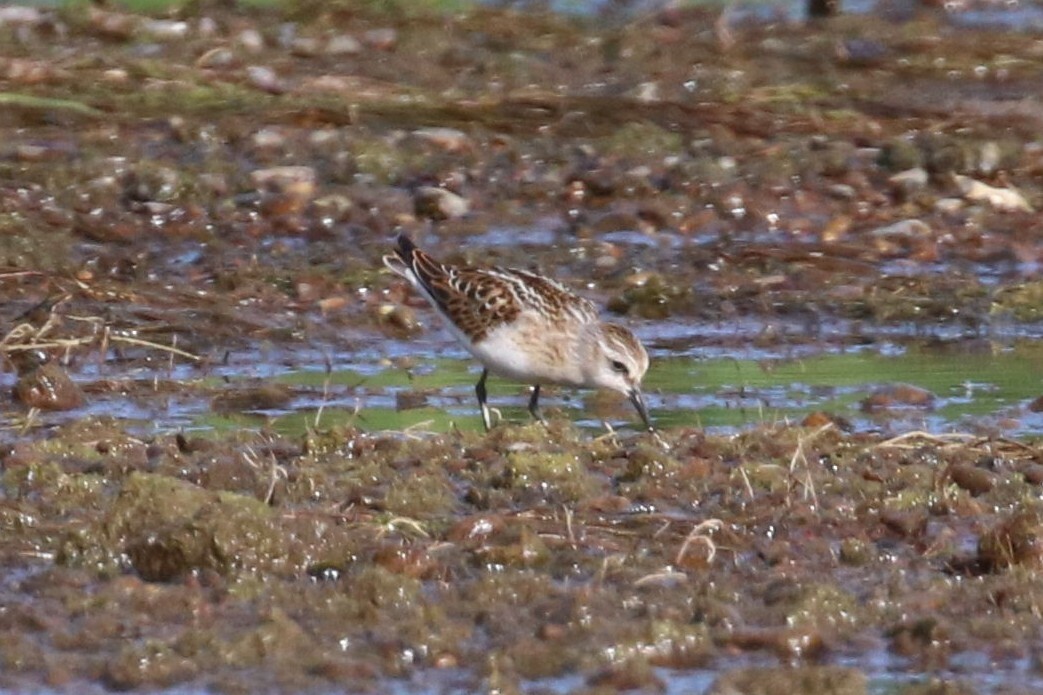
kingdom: Animalia
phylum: Chordata
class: Aves
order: Charadriiformes
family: Scolopacidae
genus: Calidris
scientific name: Calidris minuta
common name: Little stint
